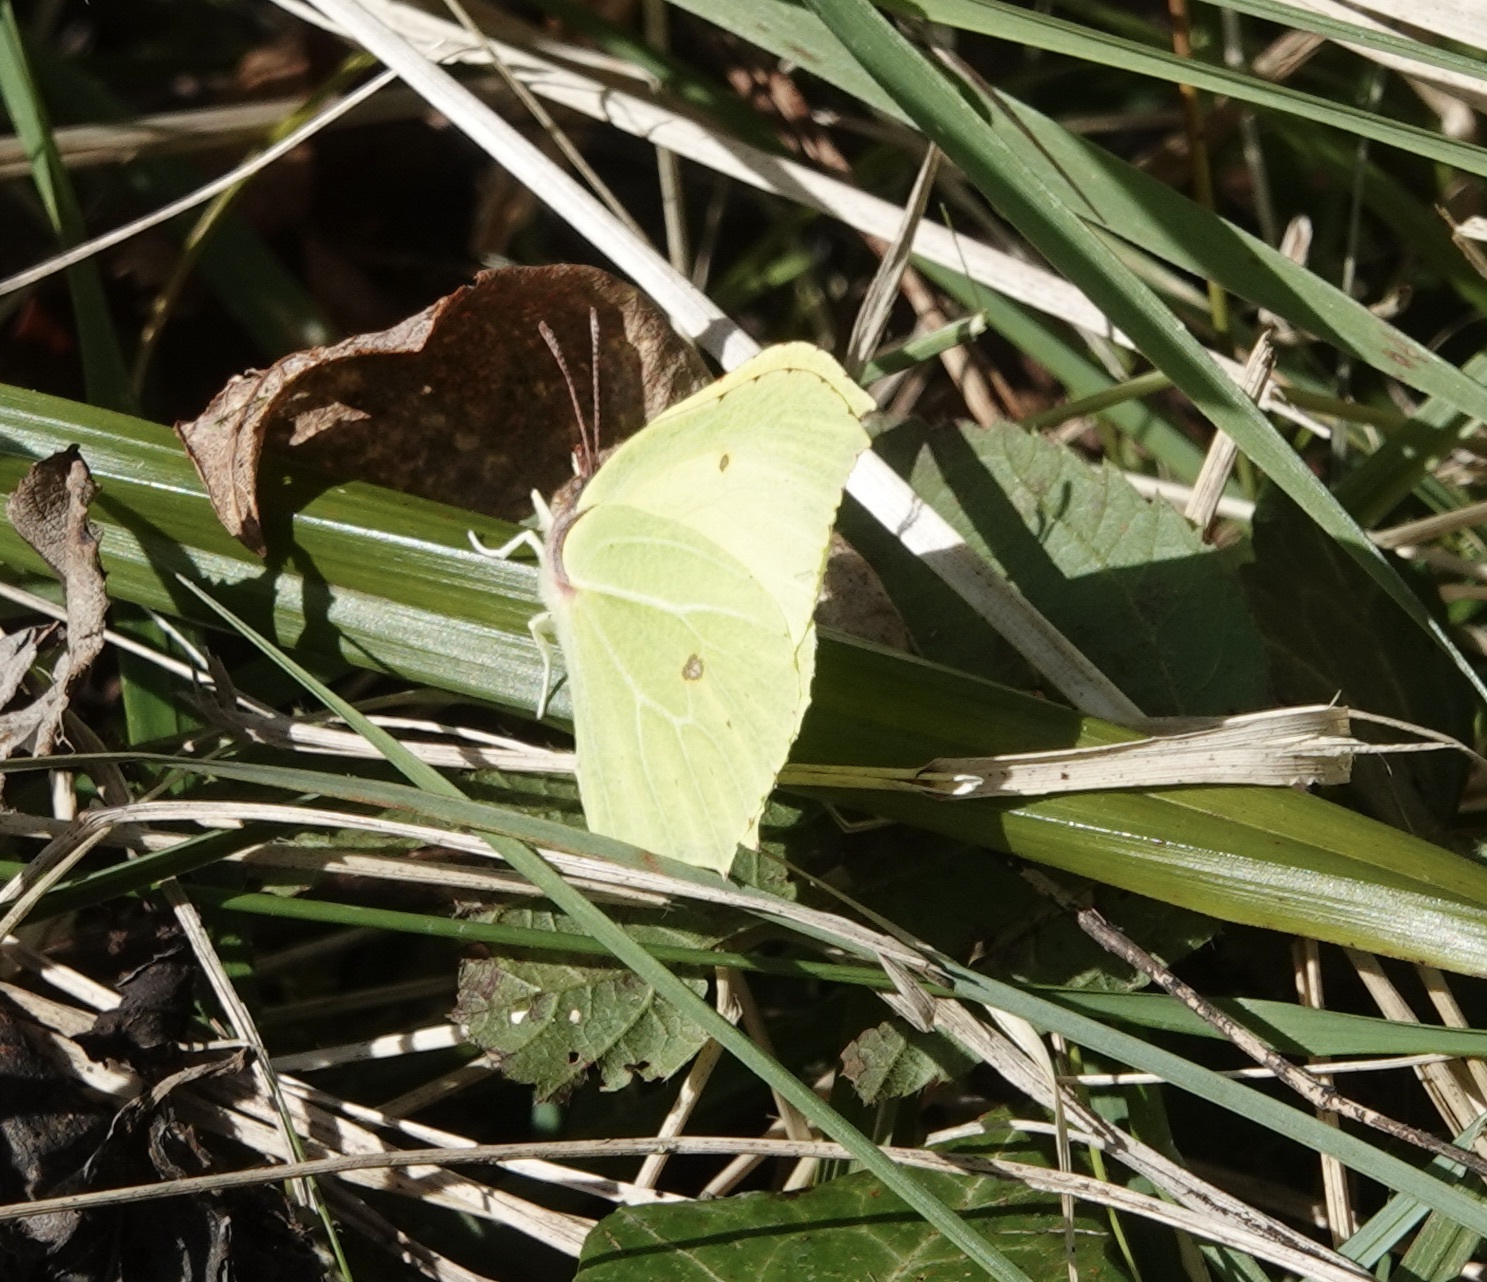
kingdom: Animalia
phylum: Arthropoda
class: Insecta
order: Lepidoptera
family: Pieridae
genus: Gonepteryx
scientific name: Gonepteryx rhamni
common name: Brimstone
